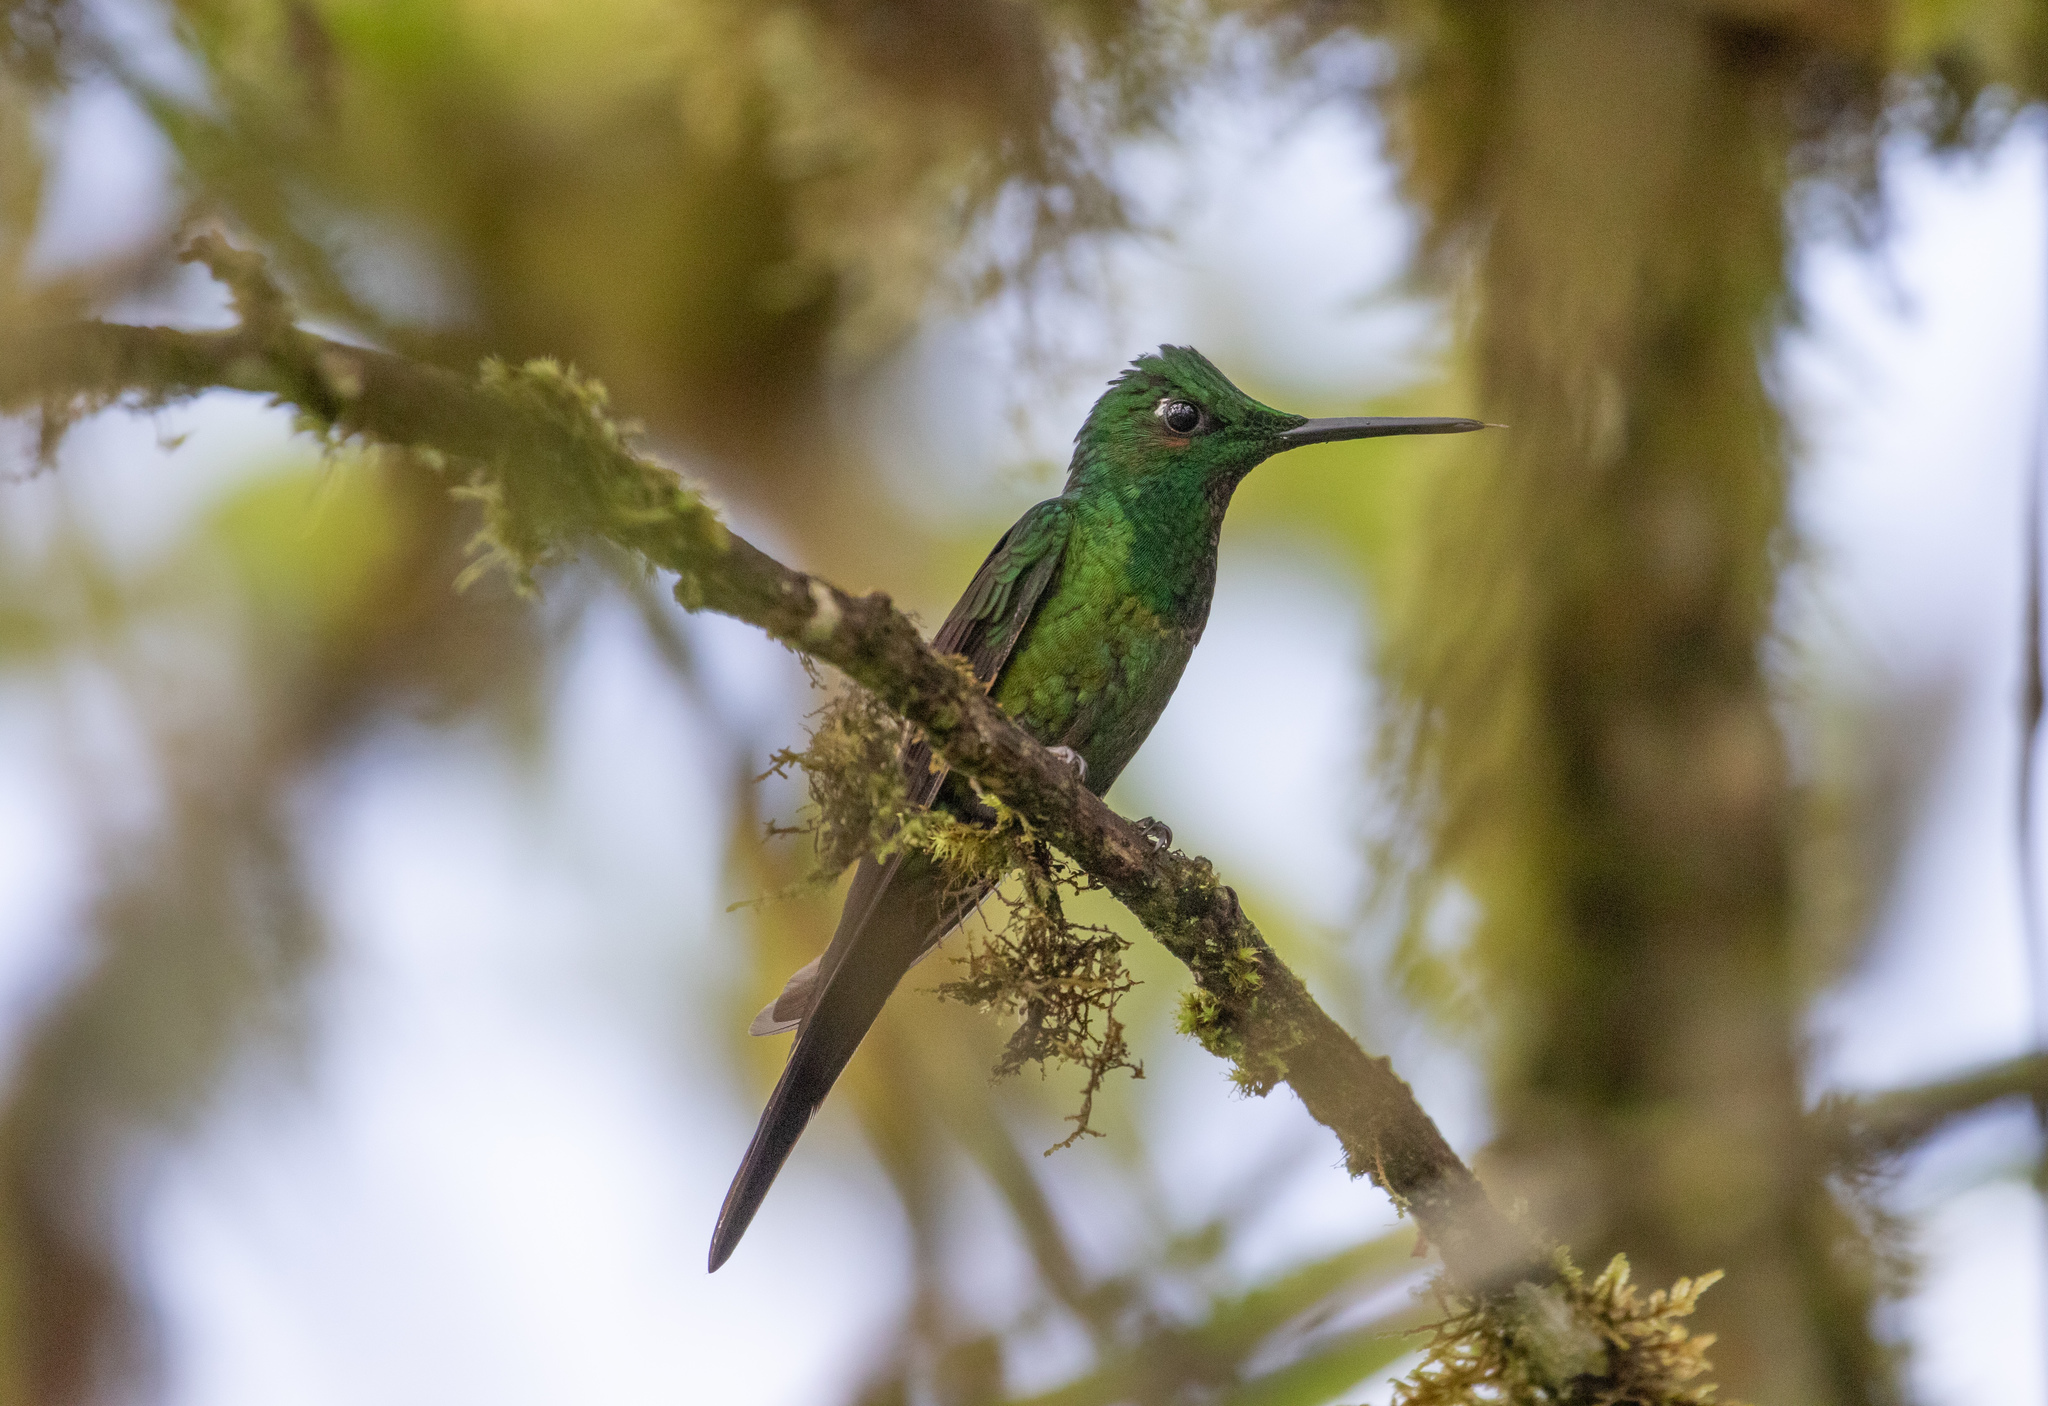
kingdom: Animalia
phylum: Chordata
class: Aves
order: Apodiformes
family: Trochilidae
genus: Heliodoxa
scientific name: Heliodoxa imperatrix
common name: Empress brilliant
